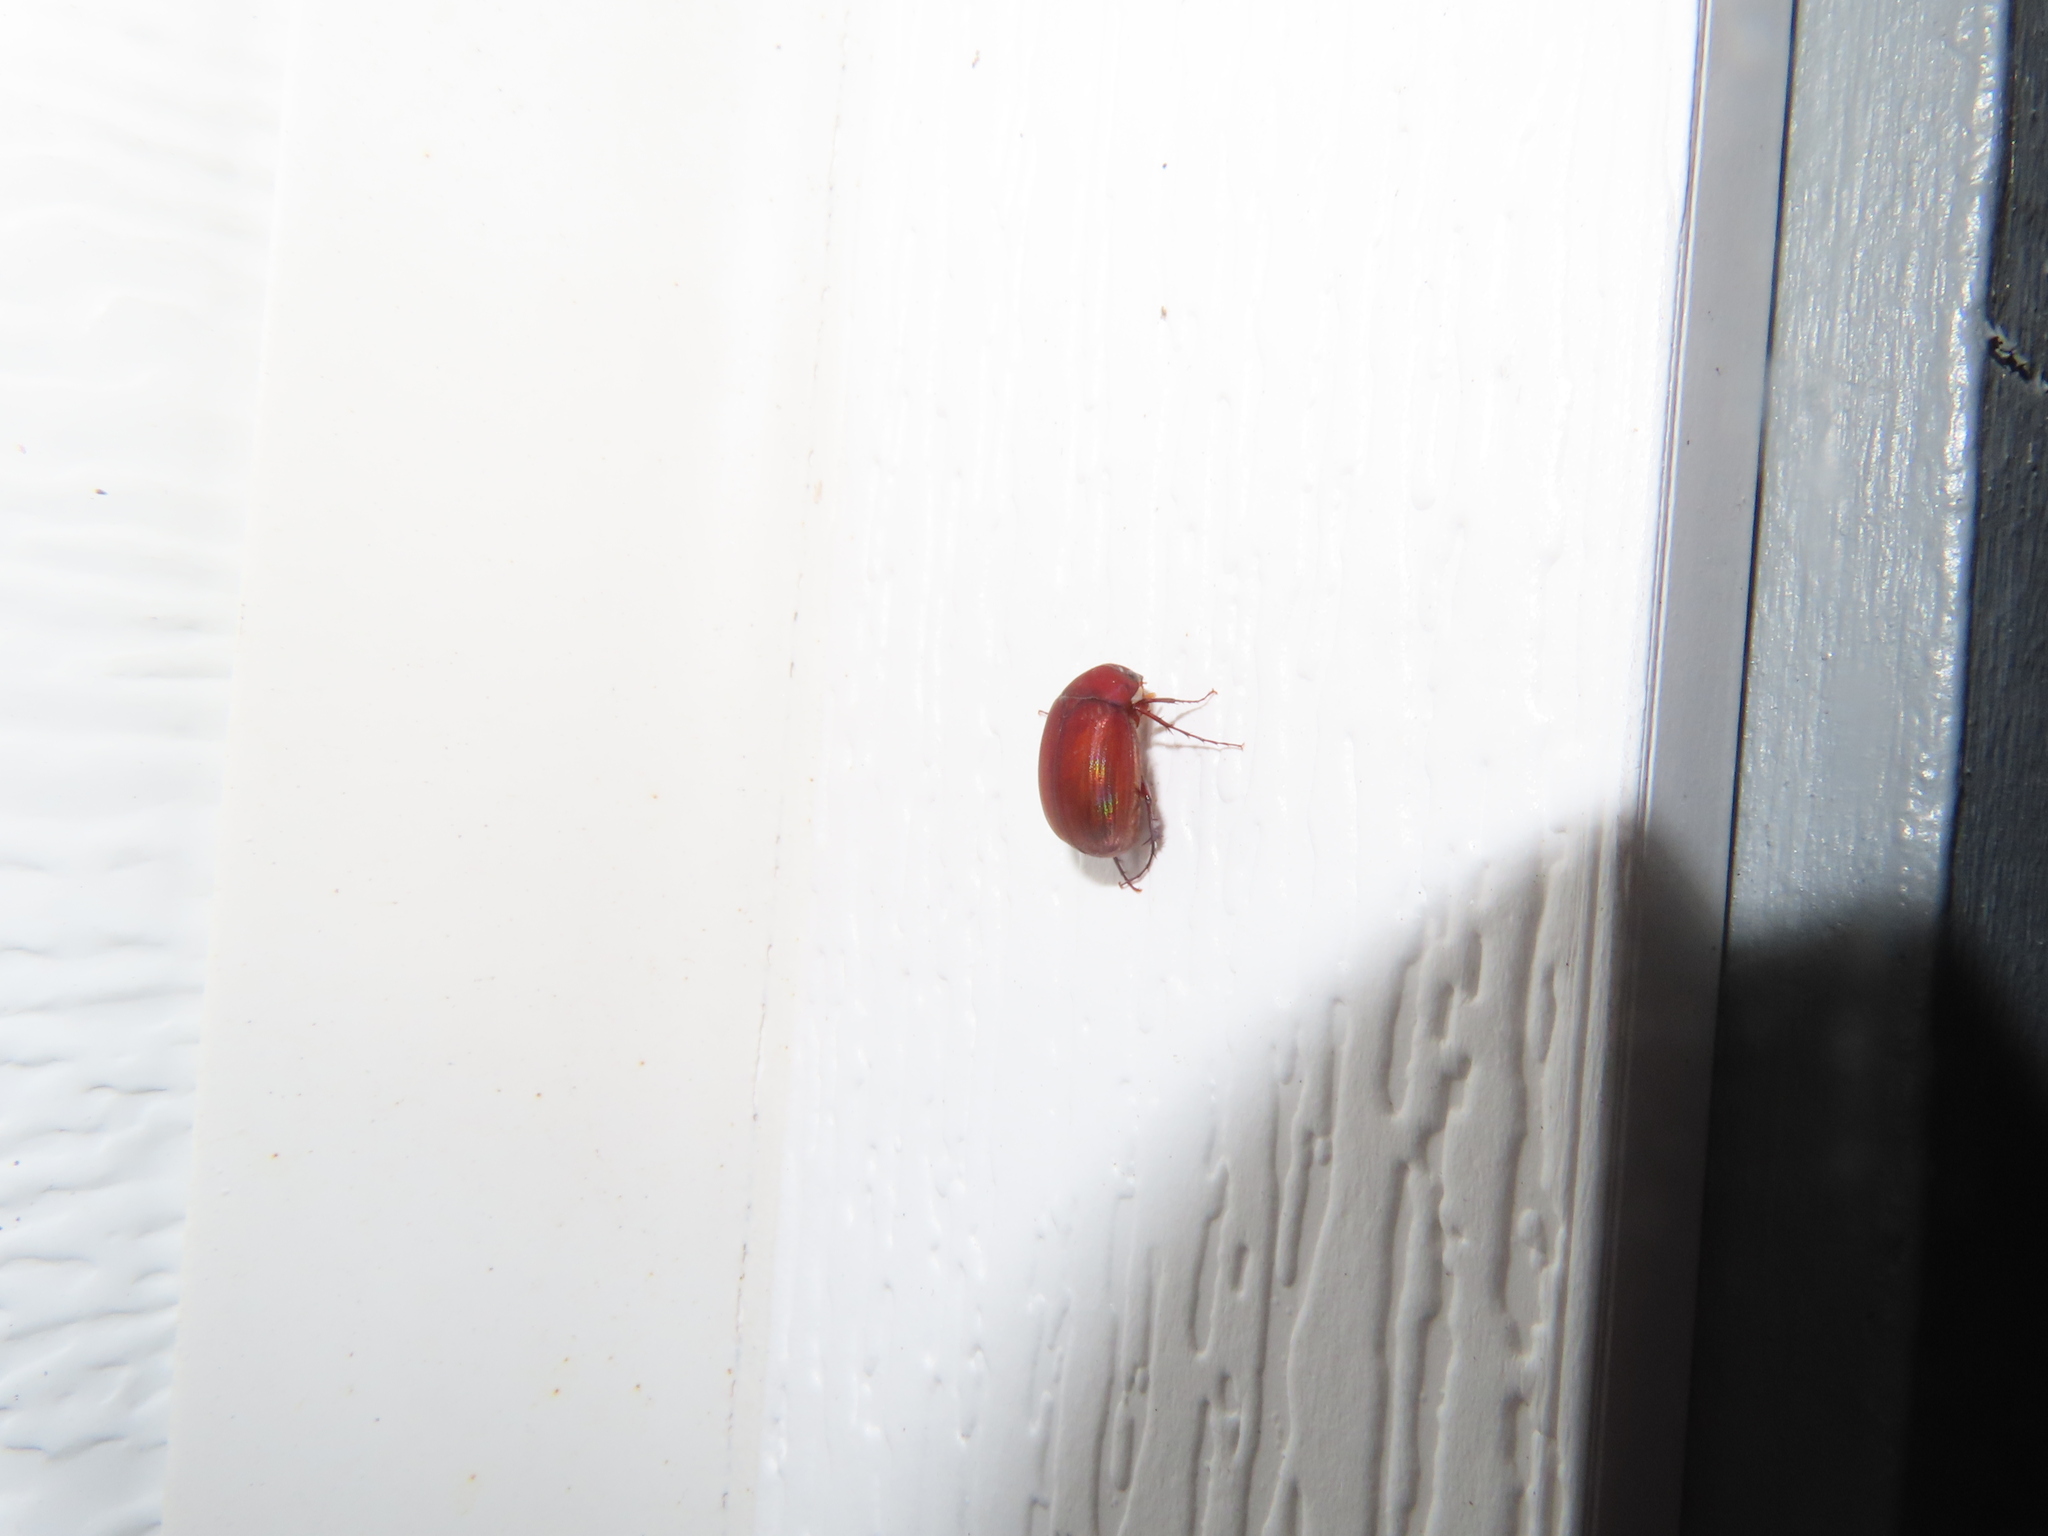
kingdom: Animalia
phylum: Arthropoda
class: Insecta
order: Coleoptera
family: Scarabaeidae
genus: Maladera
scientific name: Maladera formosae
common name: Asiatic garden beetle
